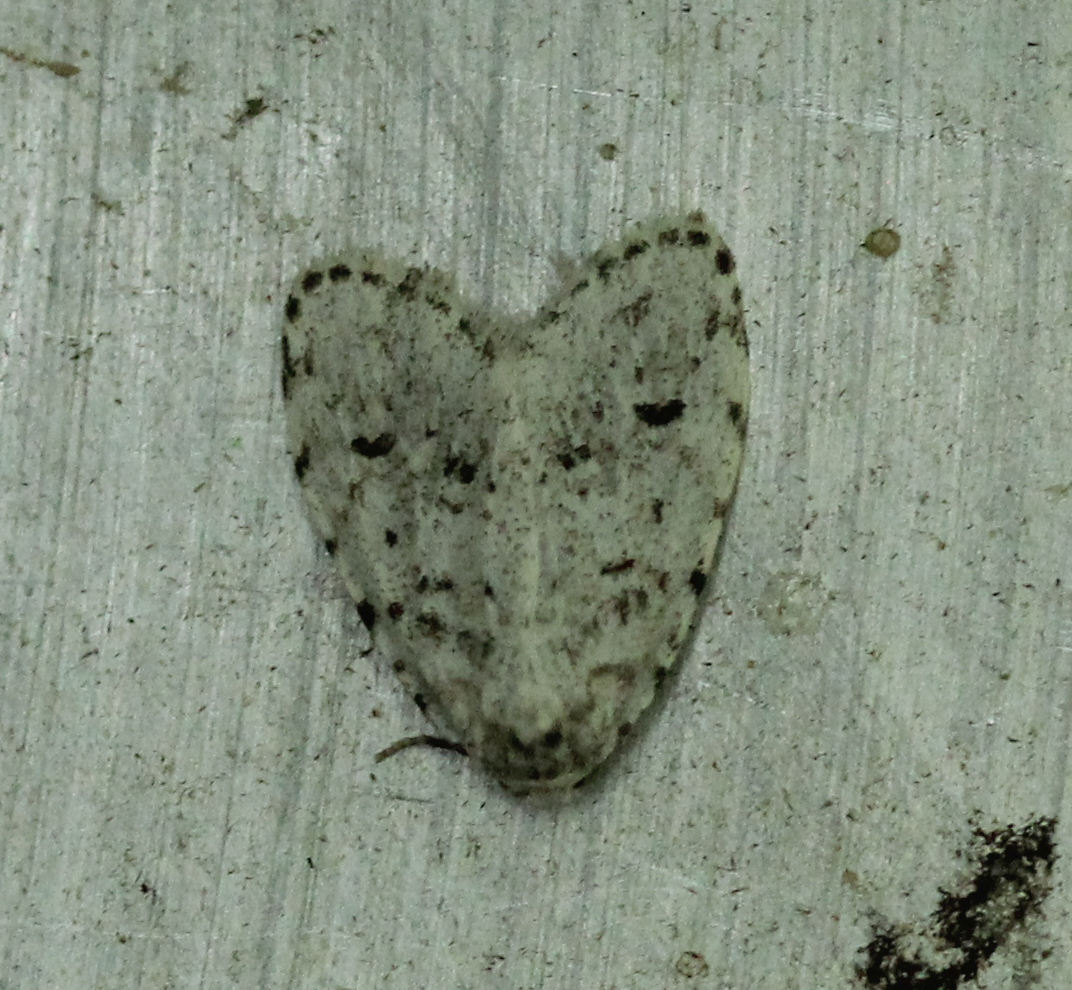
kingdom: Animalia
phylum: Arthropoda
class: Insecta
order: Lepidoptera
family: Erebidae
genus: Clemensia
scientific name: Clemensia albata
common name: Little white lichen moth
